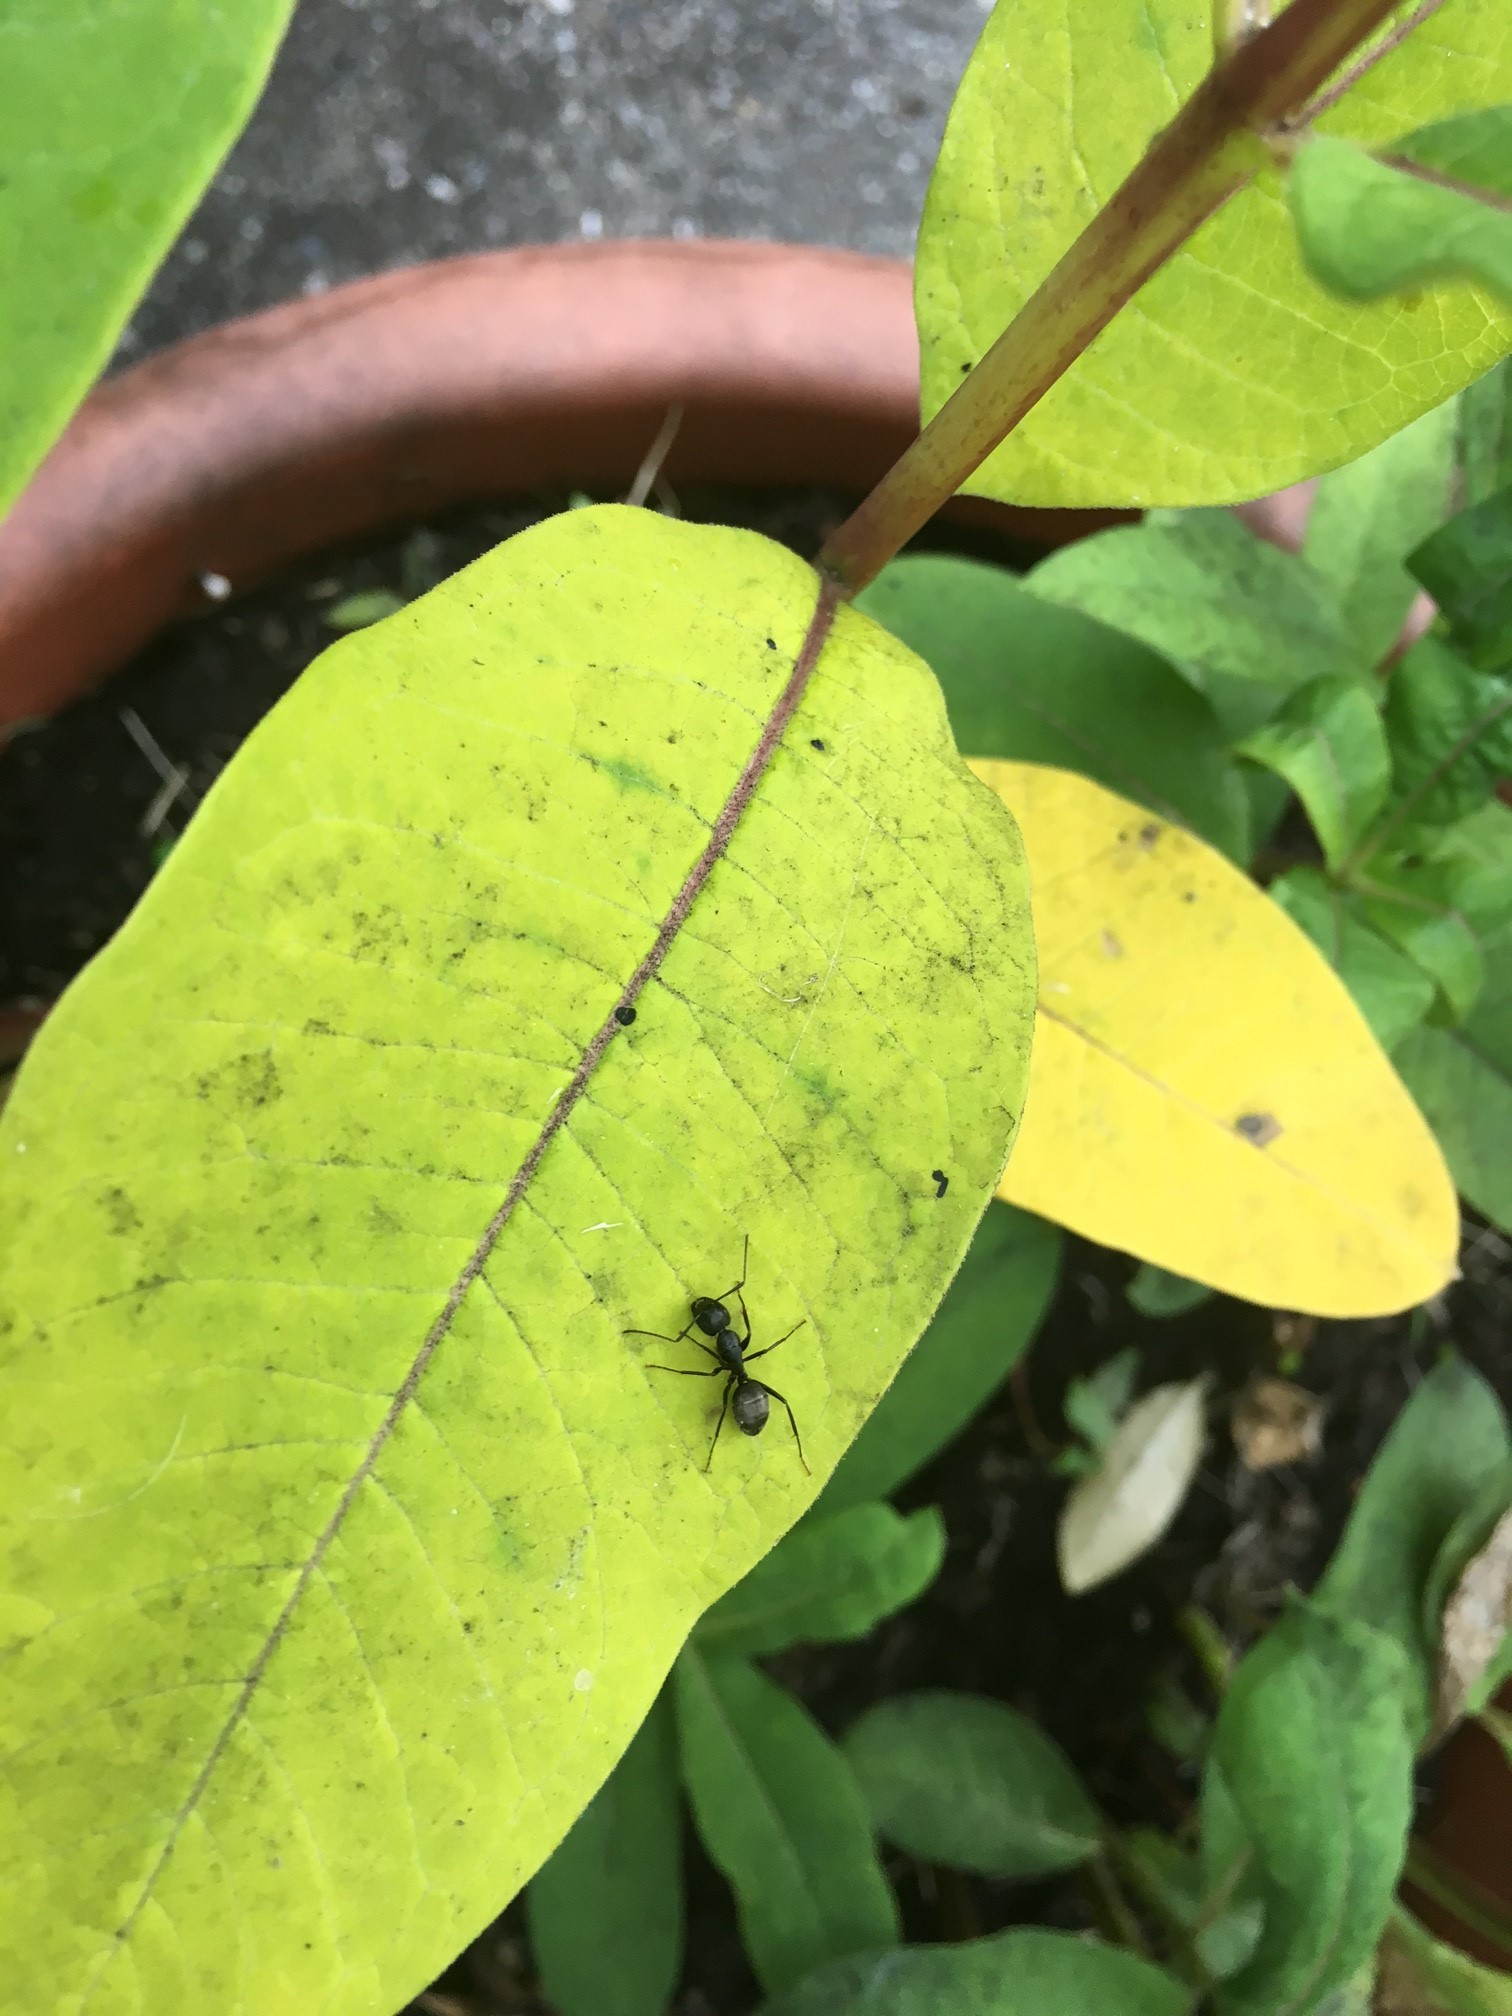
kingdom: Animalia
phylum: Arthropoda
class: Insecta
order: Hymenoptera
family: Formicidae
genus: Camponotus
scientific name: Camponotus pennsylvanicus
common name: Black carpenter ant
